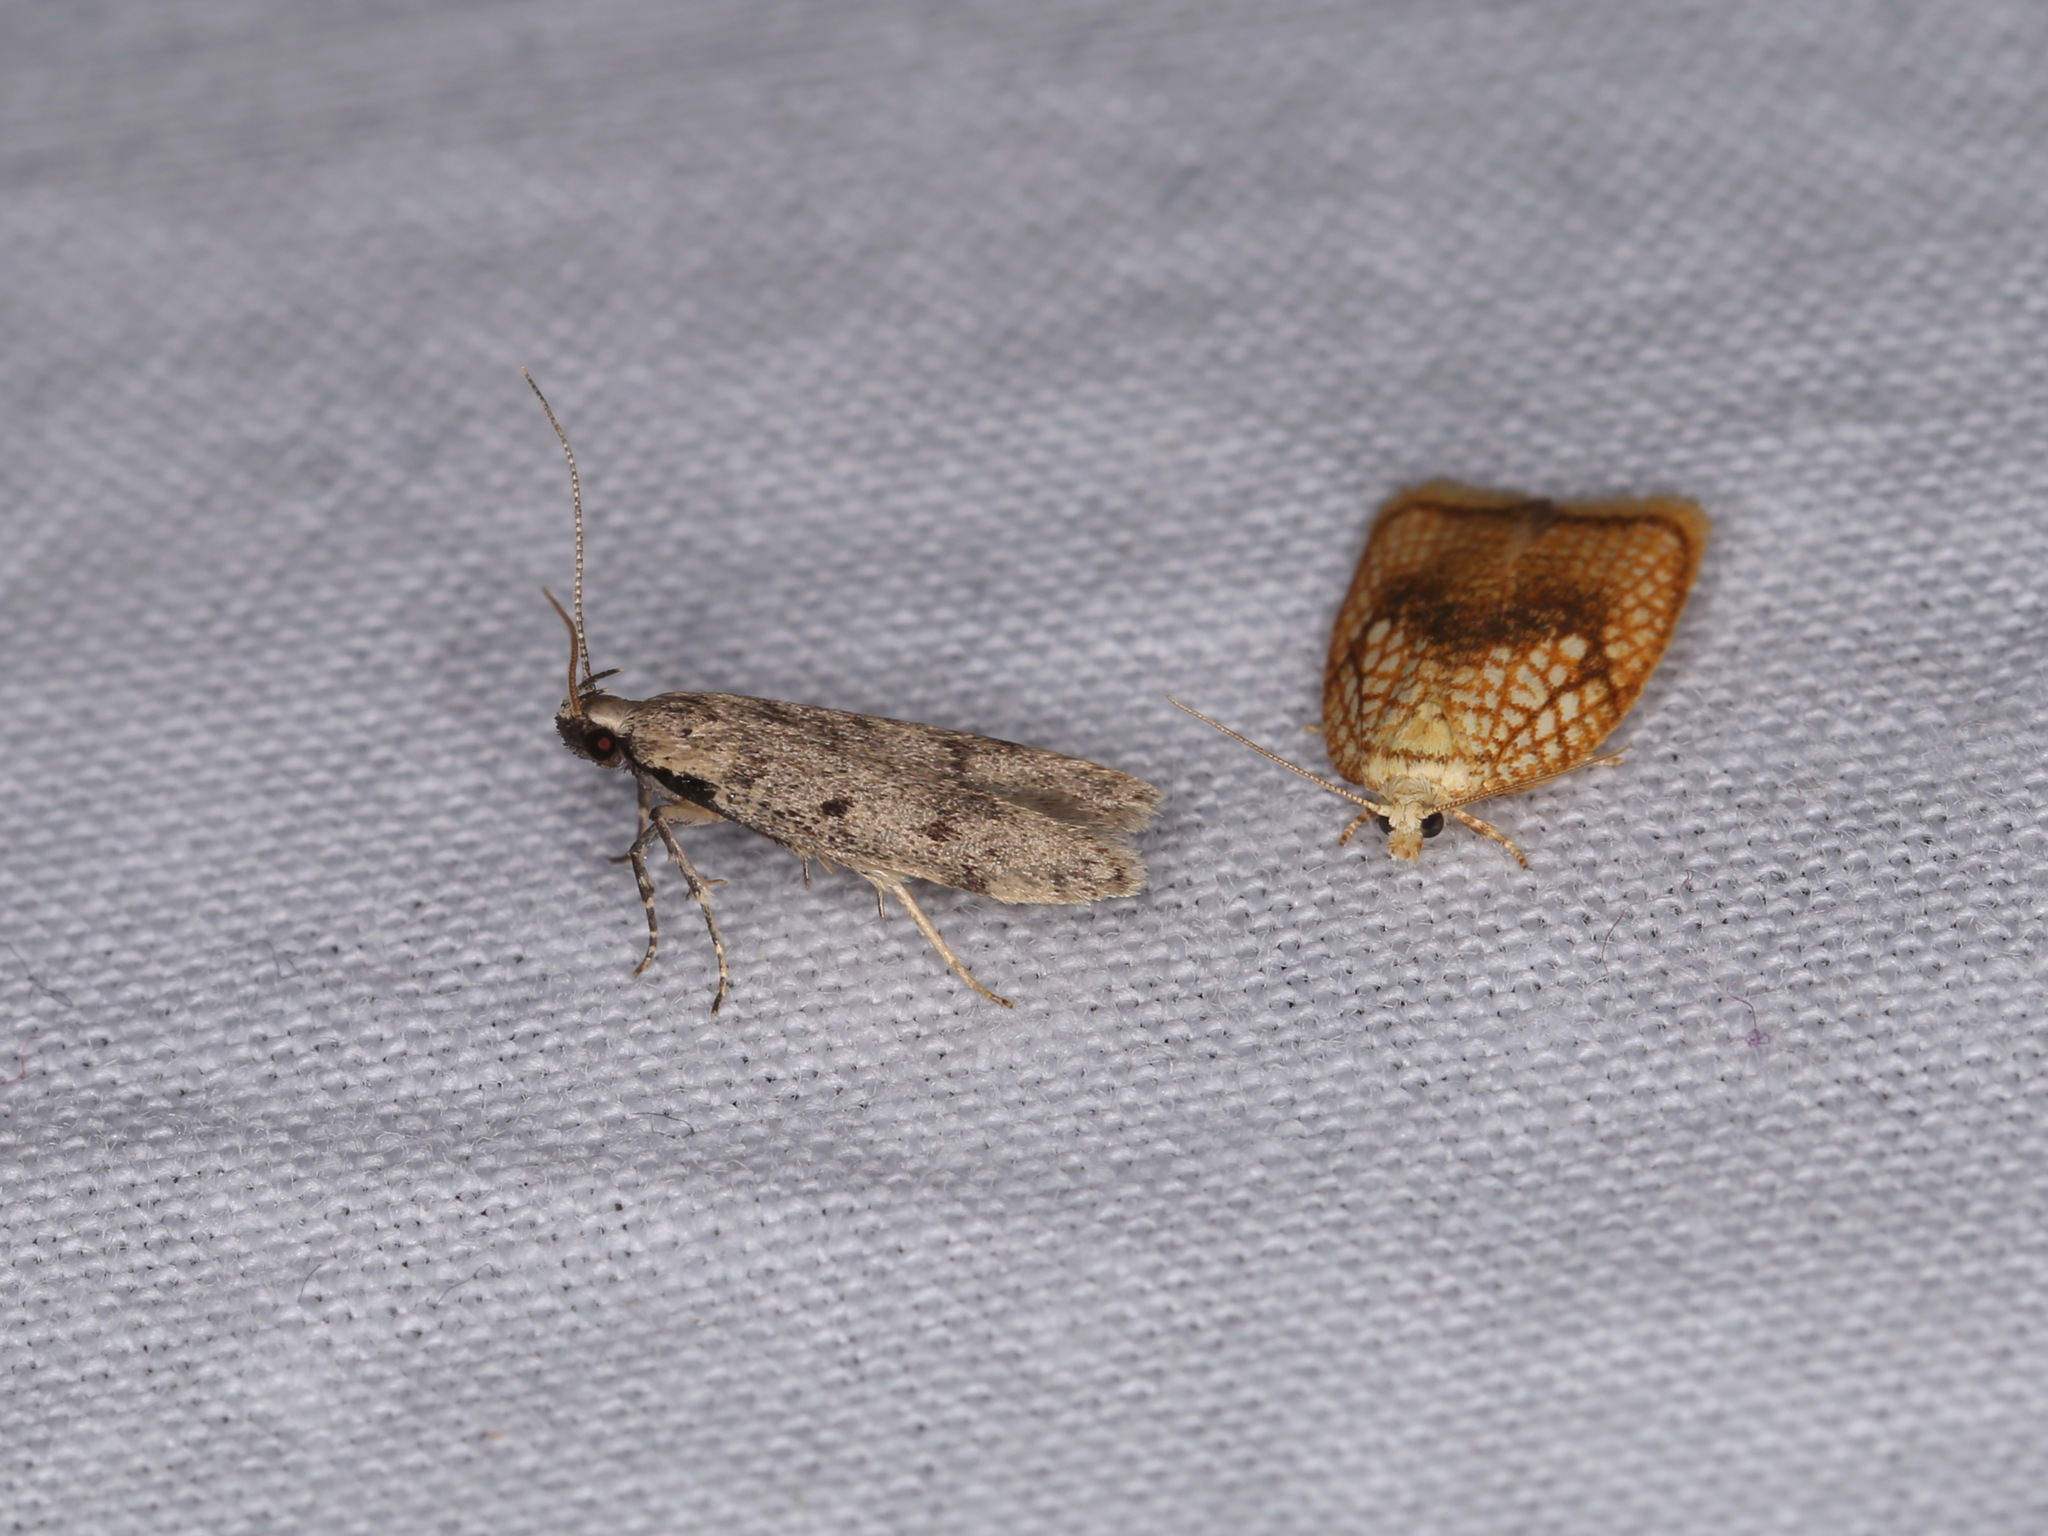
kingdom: Animalia
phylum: Arthropoda
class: Insecta
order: Lepidoptera
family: Gelechiidae
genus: Gelechia
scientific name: Gelechia rhombella
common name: Apple groundling
